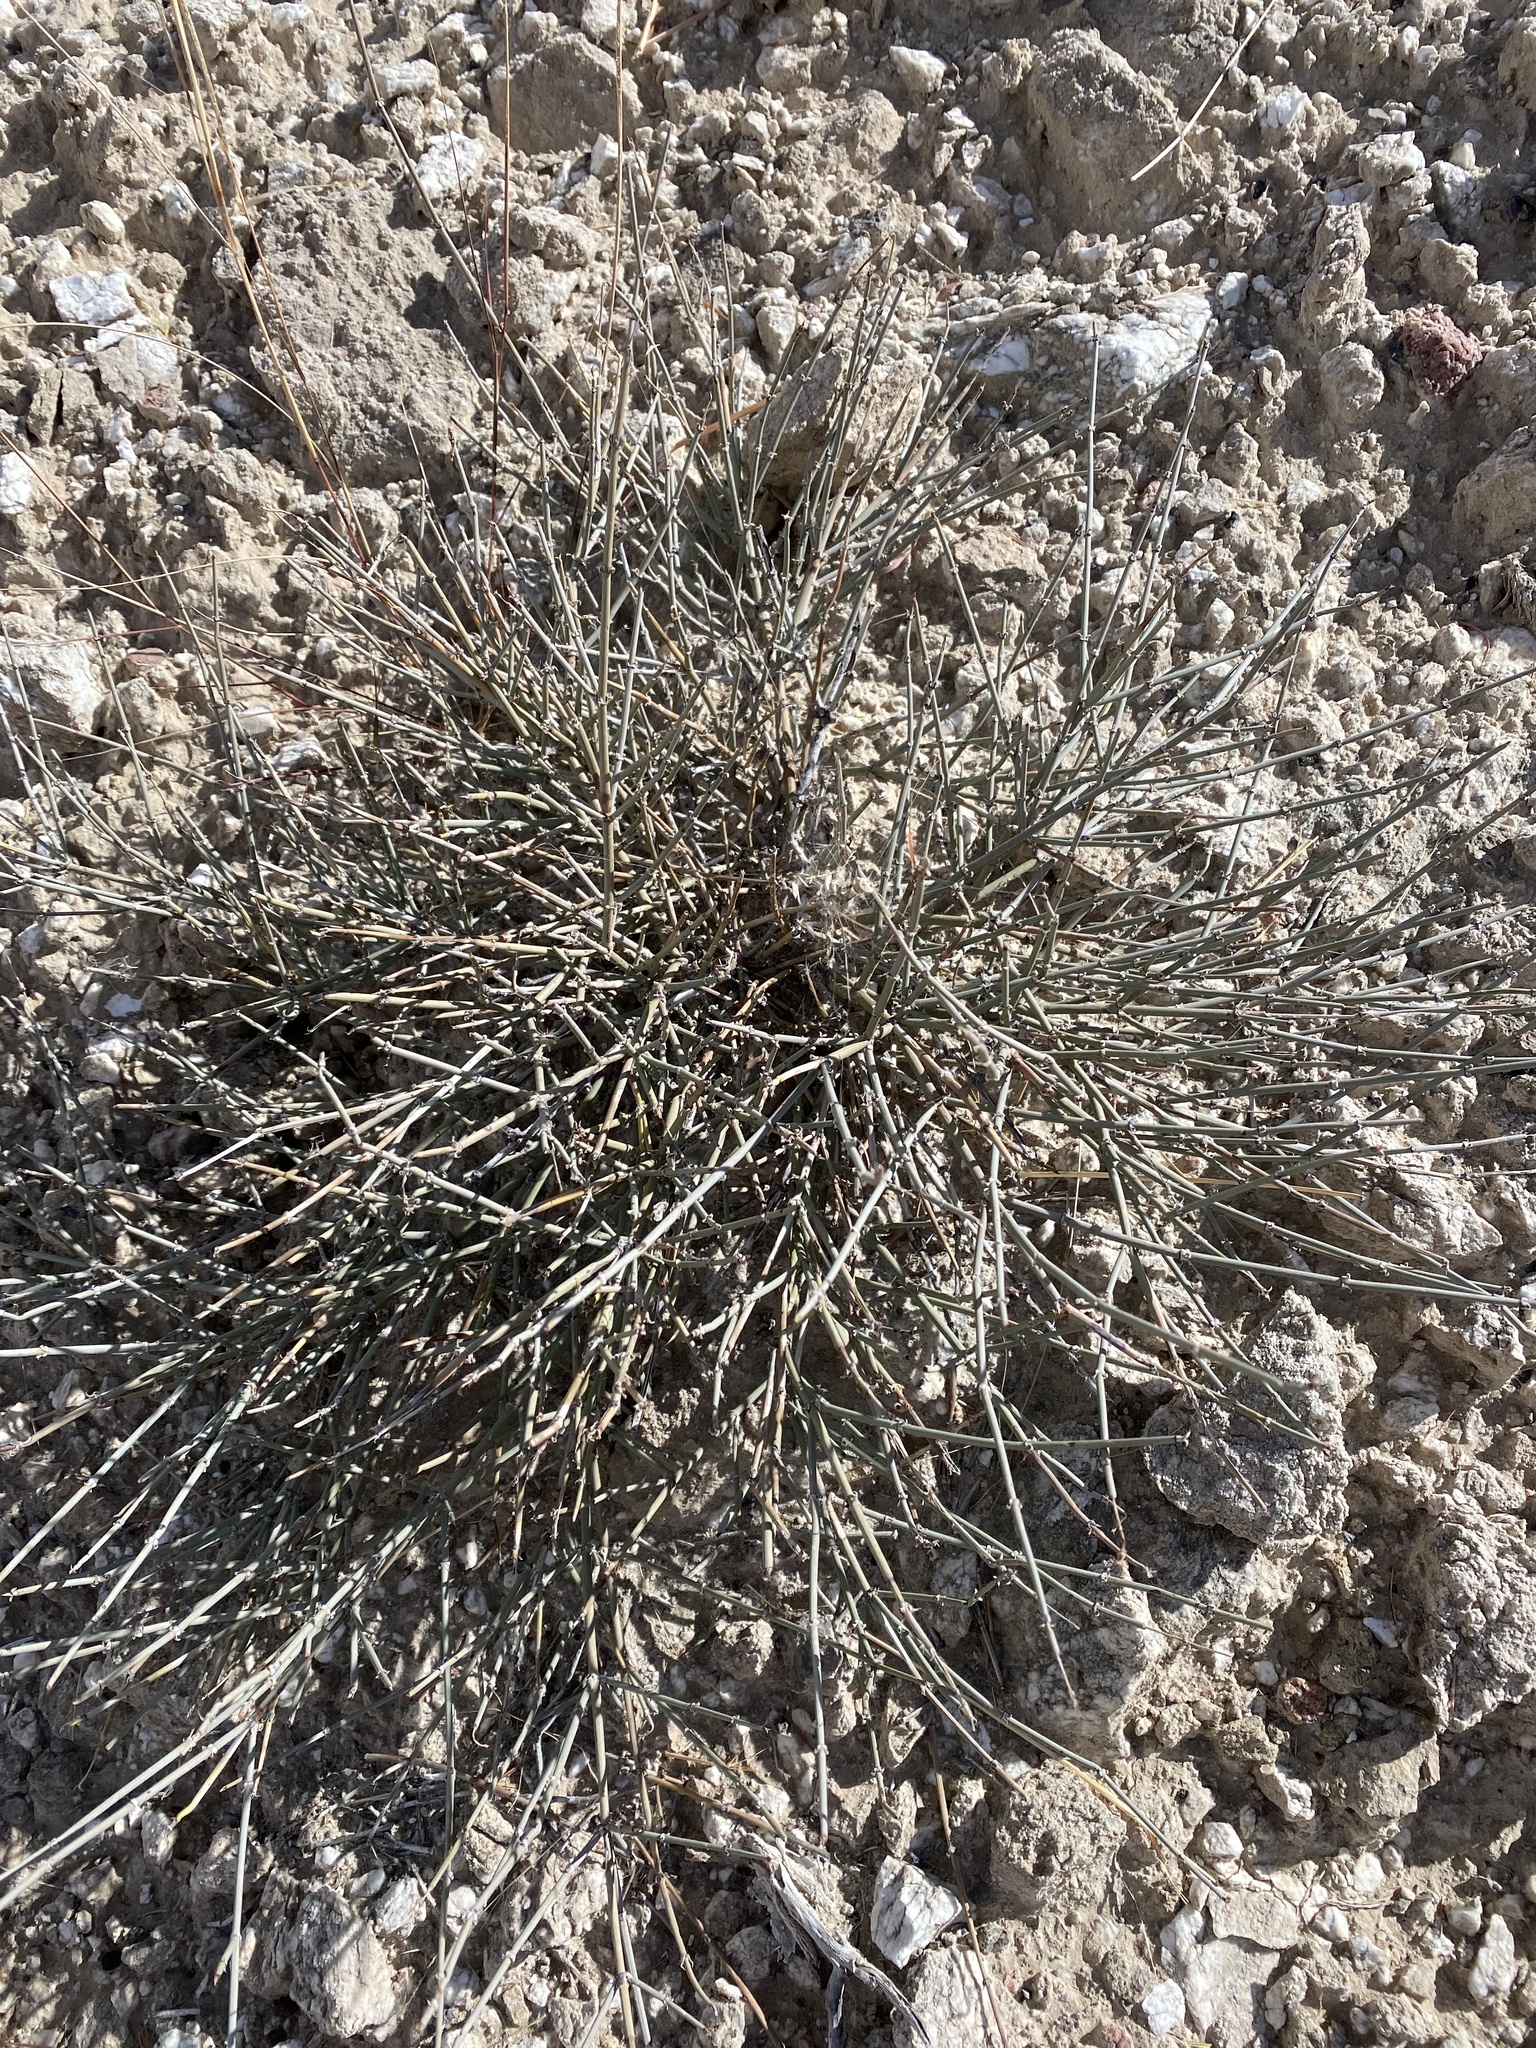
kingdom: Plantae
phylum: Tracheophyta
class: Gnetopsida
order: Ephedrales
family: Ephedraceae
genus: Ephedra
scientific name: Ephedra torreyana
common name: Torrey ephedra
